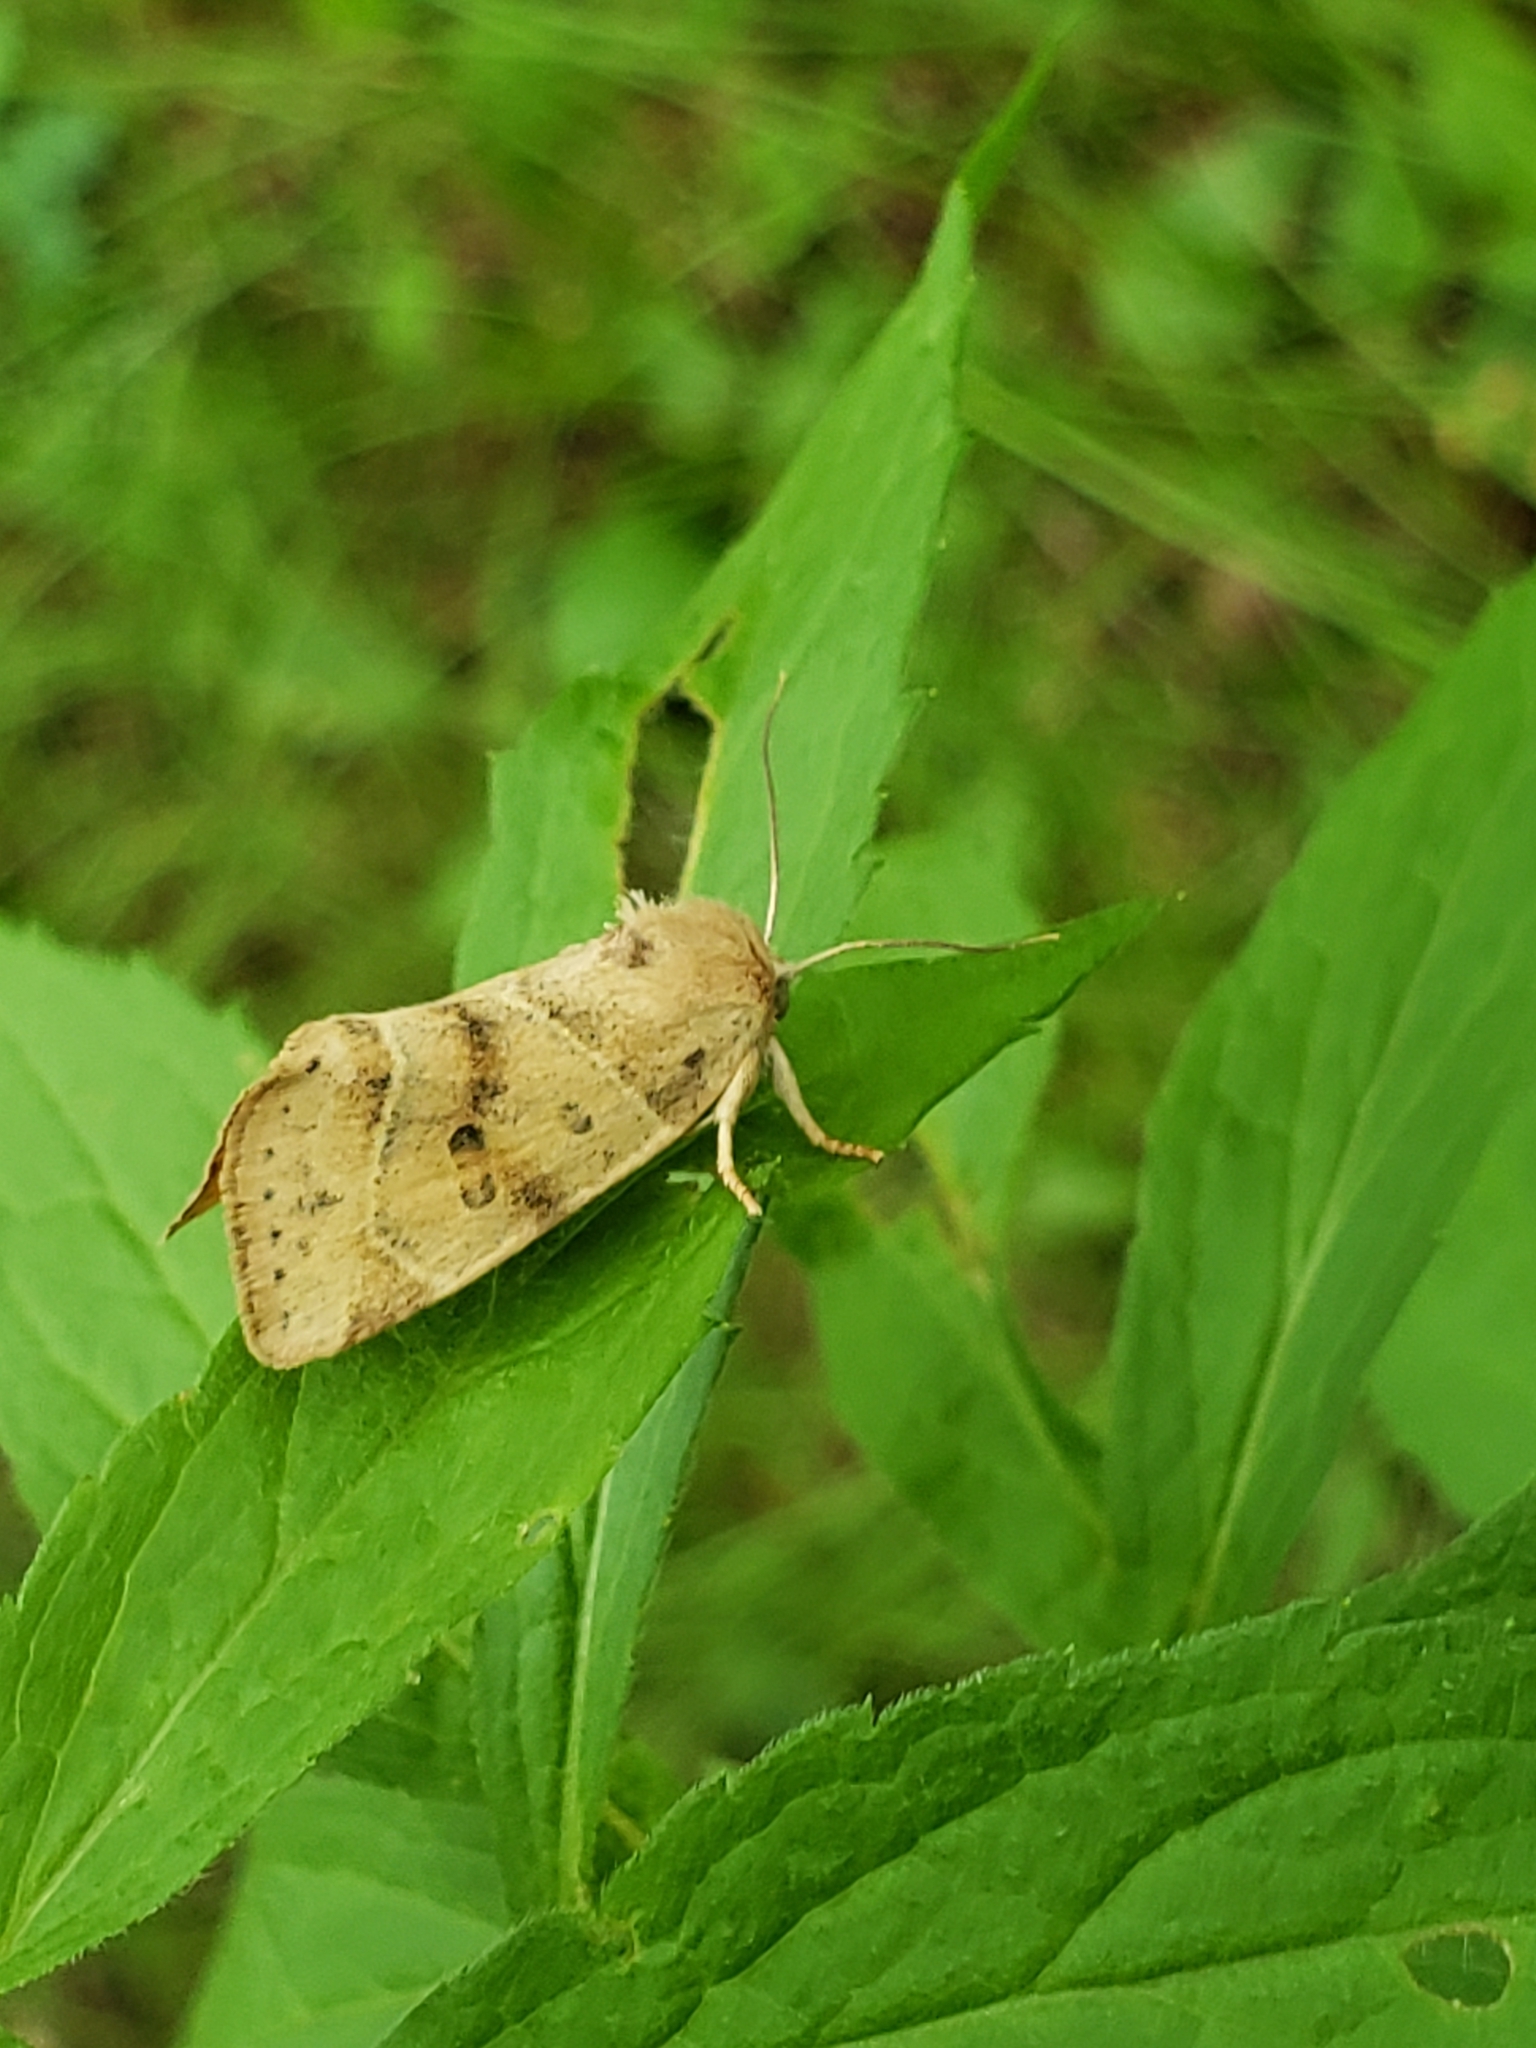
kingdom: Animalia
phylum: Arthropoda
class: Insecta
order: Lepidoptera
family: Noctuidae
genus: Cosmia
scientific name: Cosmia calami
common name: American dun-bar moth
